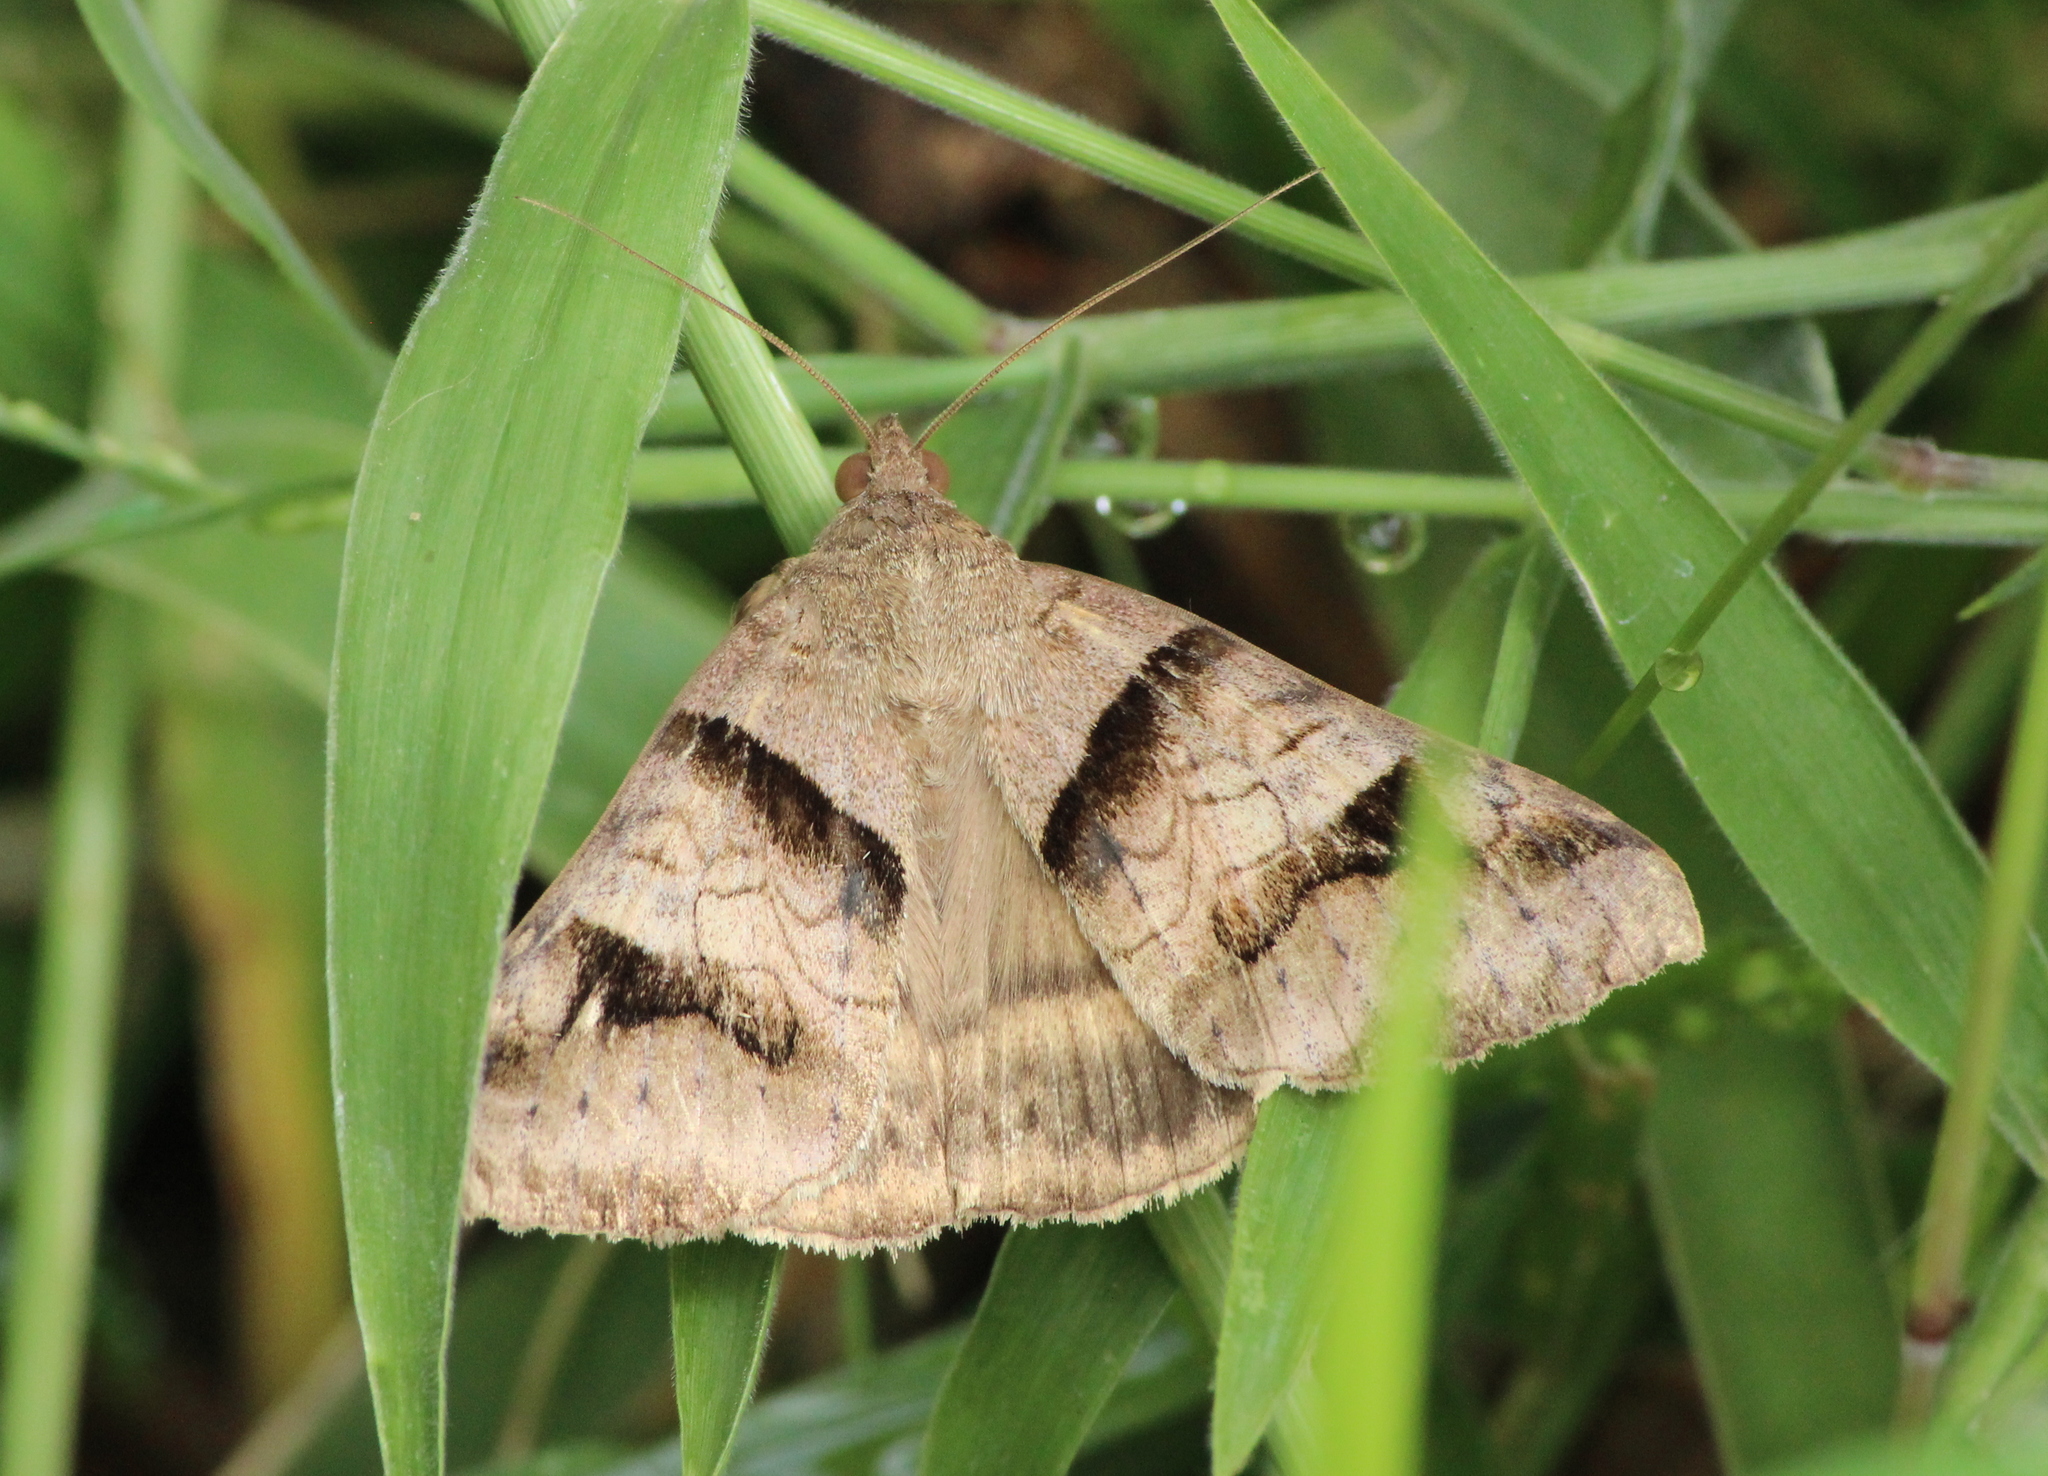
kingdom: Animalia
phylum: Arthropoda
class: Insecta
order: Lepidoptera
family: Erebidae
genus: Mocis
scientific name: Mocis undata
